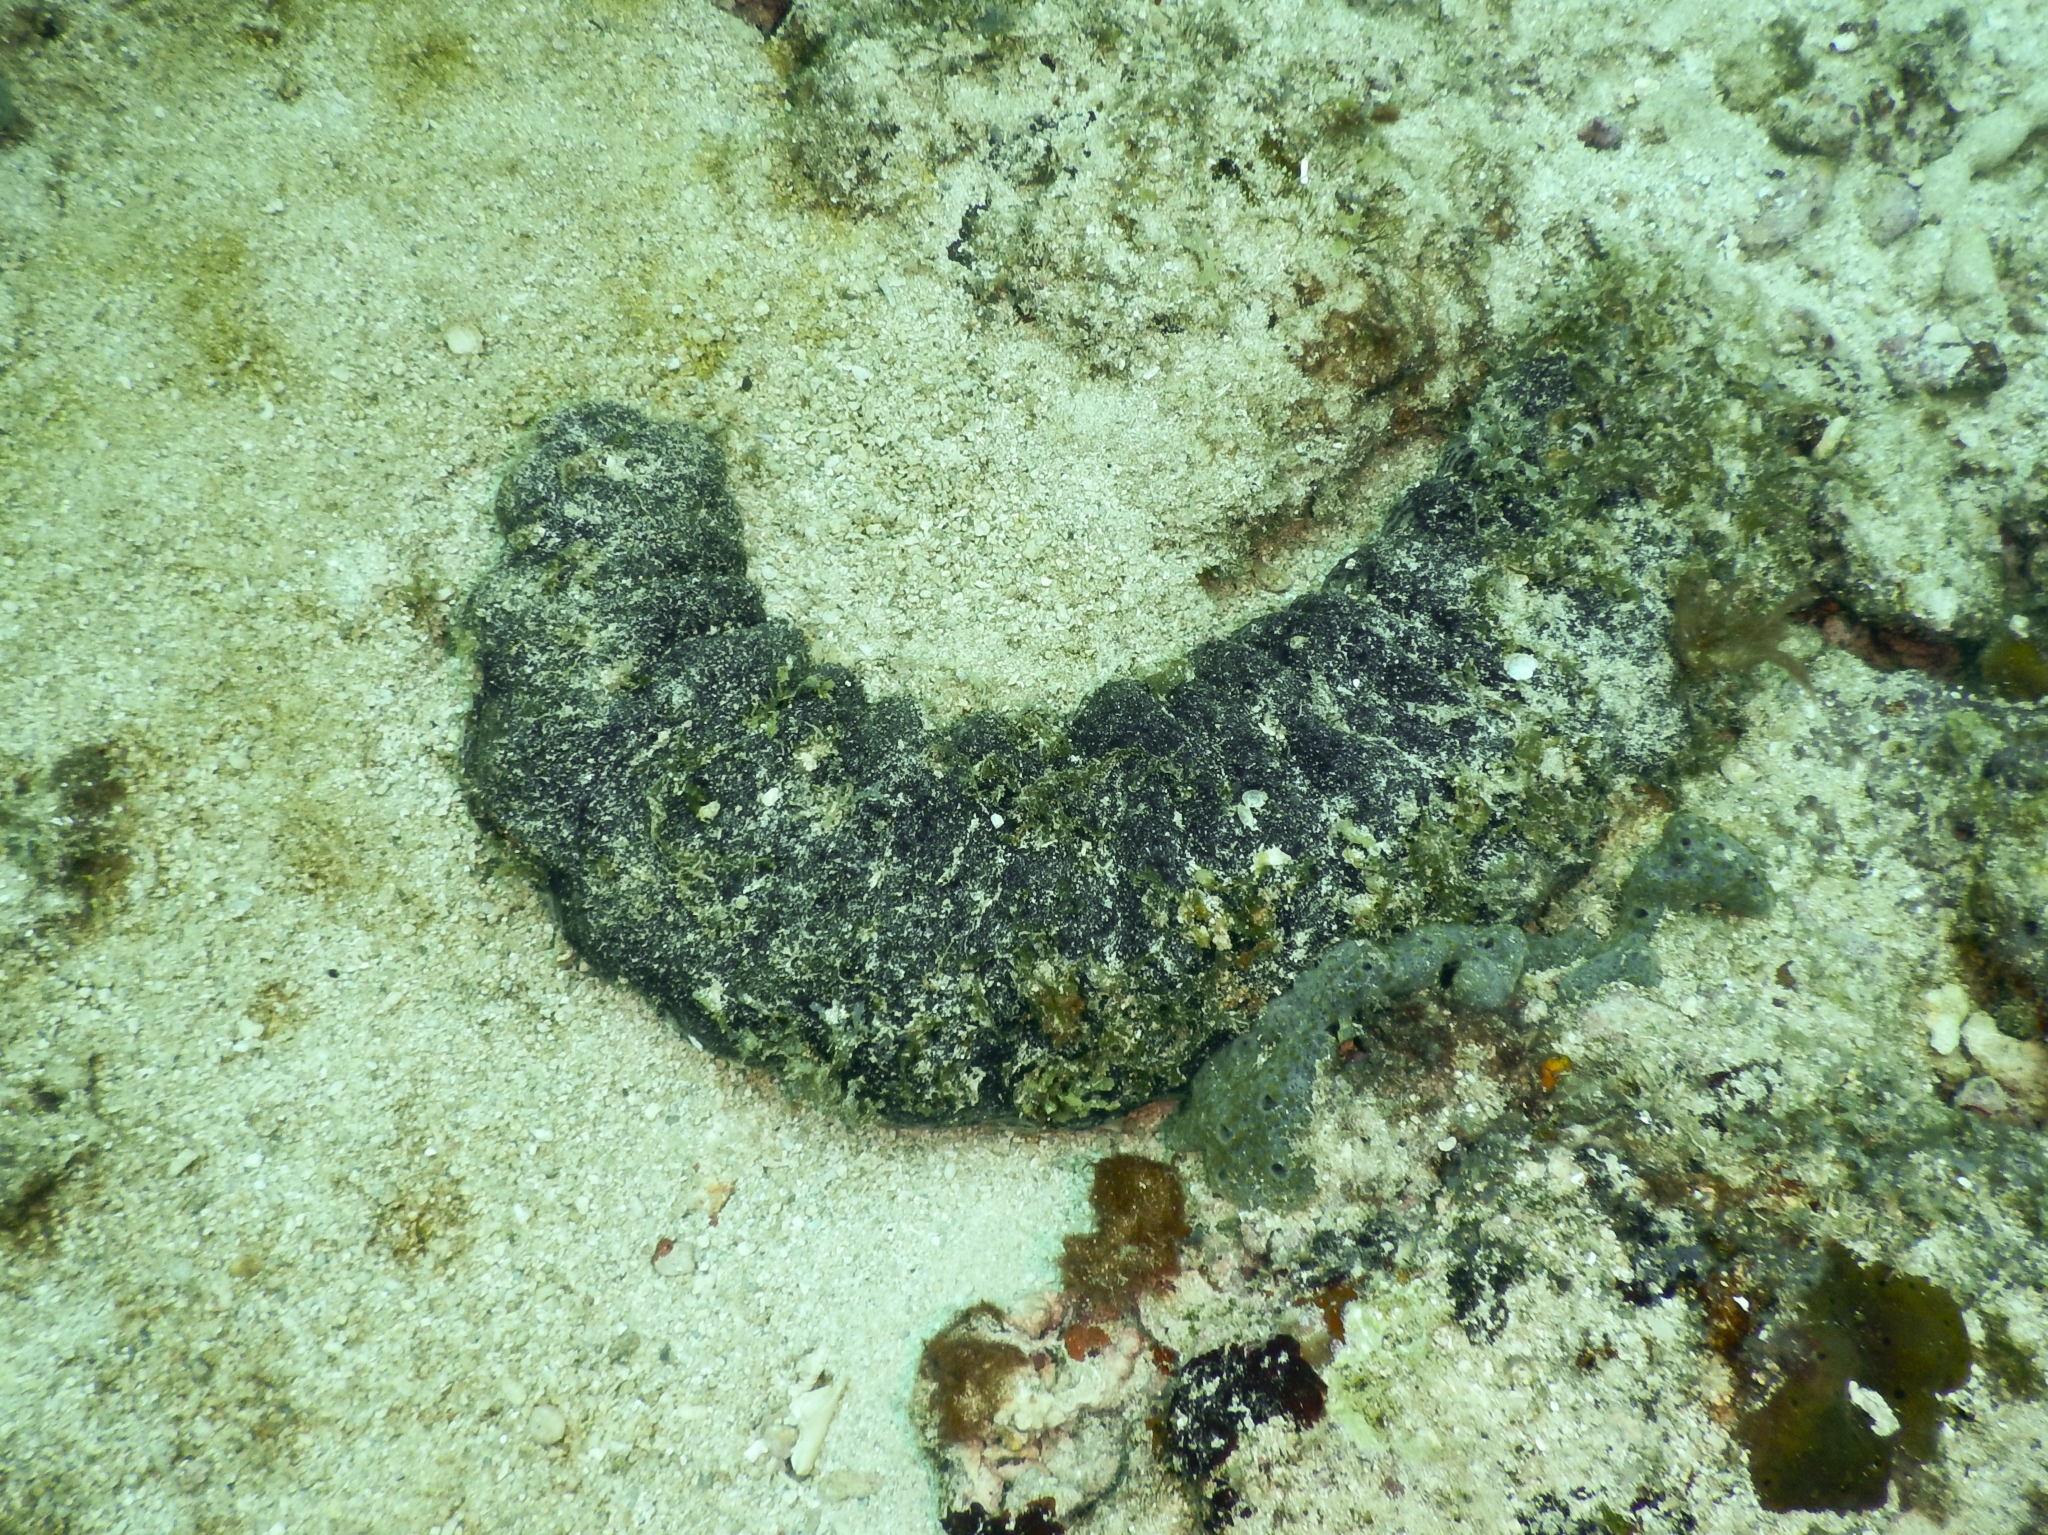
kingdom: Animalia
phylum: Echinodermata
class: Holothuroidea
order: Holothuriida
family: Holothuriidae
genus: Holothuria
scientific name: Holothuria mexicana
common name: Donkey dung sea cucumber
